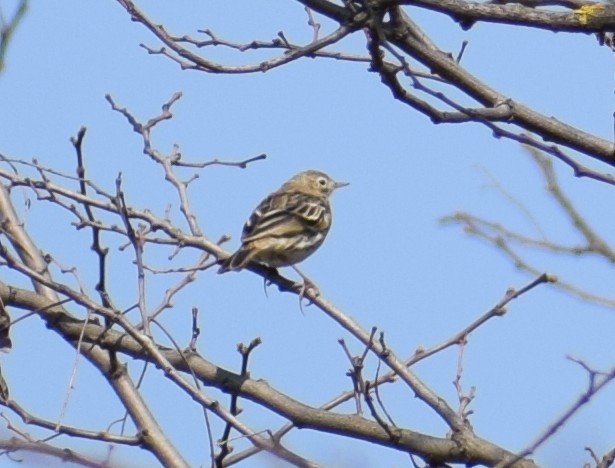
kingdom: Animalia
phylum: Chordata
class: Aves
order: Passeriformes
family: Motacillidae
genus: Anthus
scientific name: Anthus pratensis
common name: Meadow pipit
